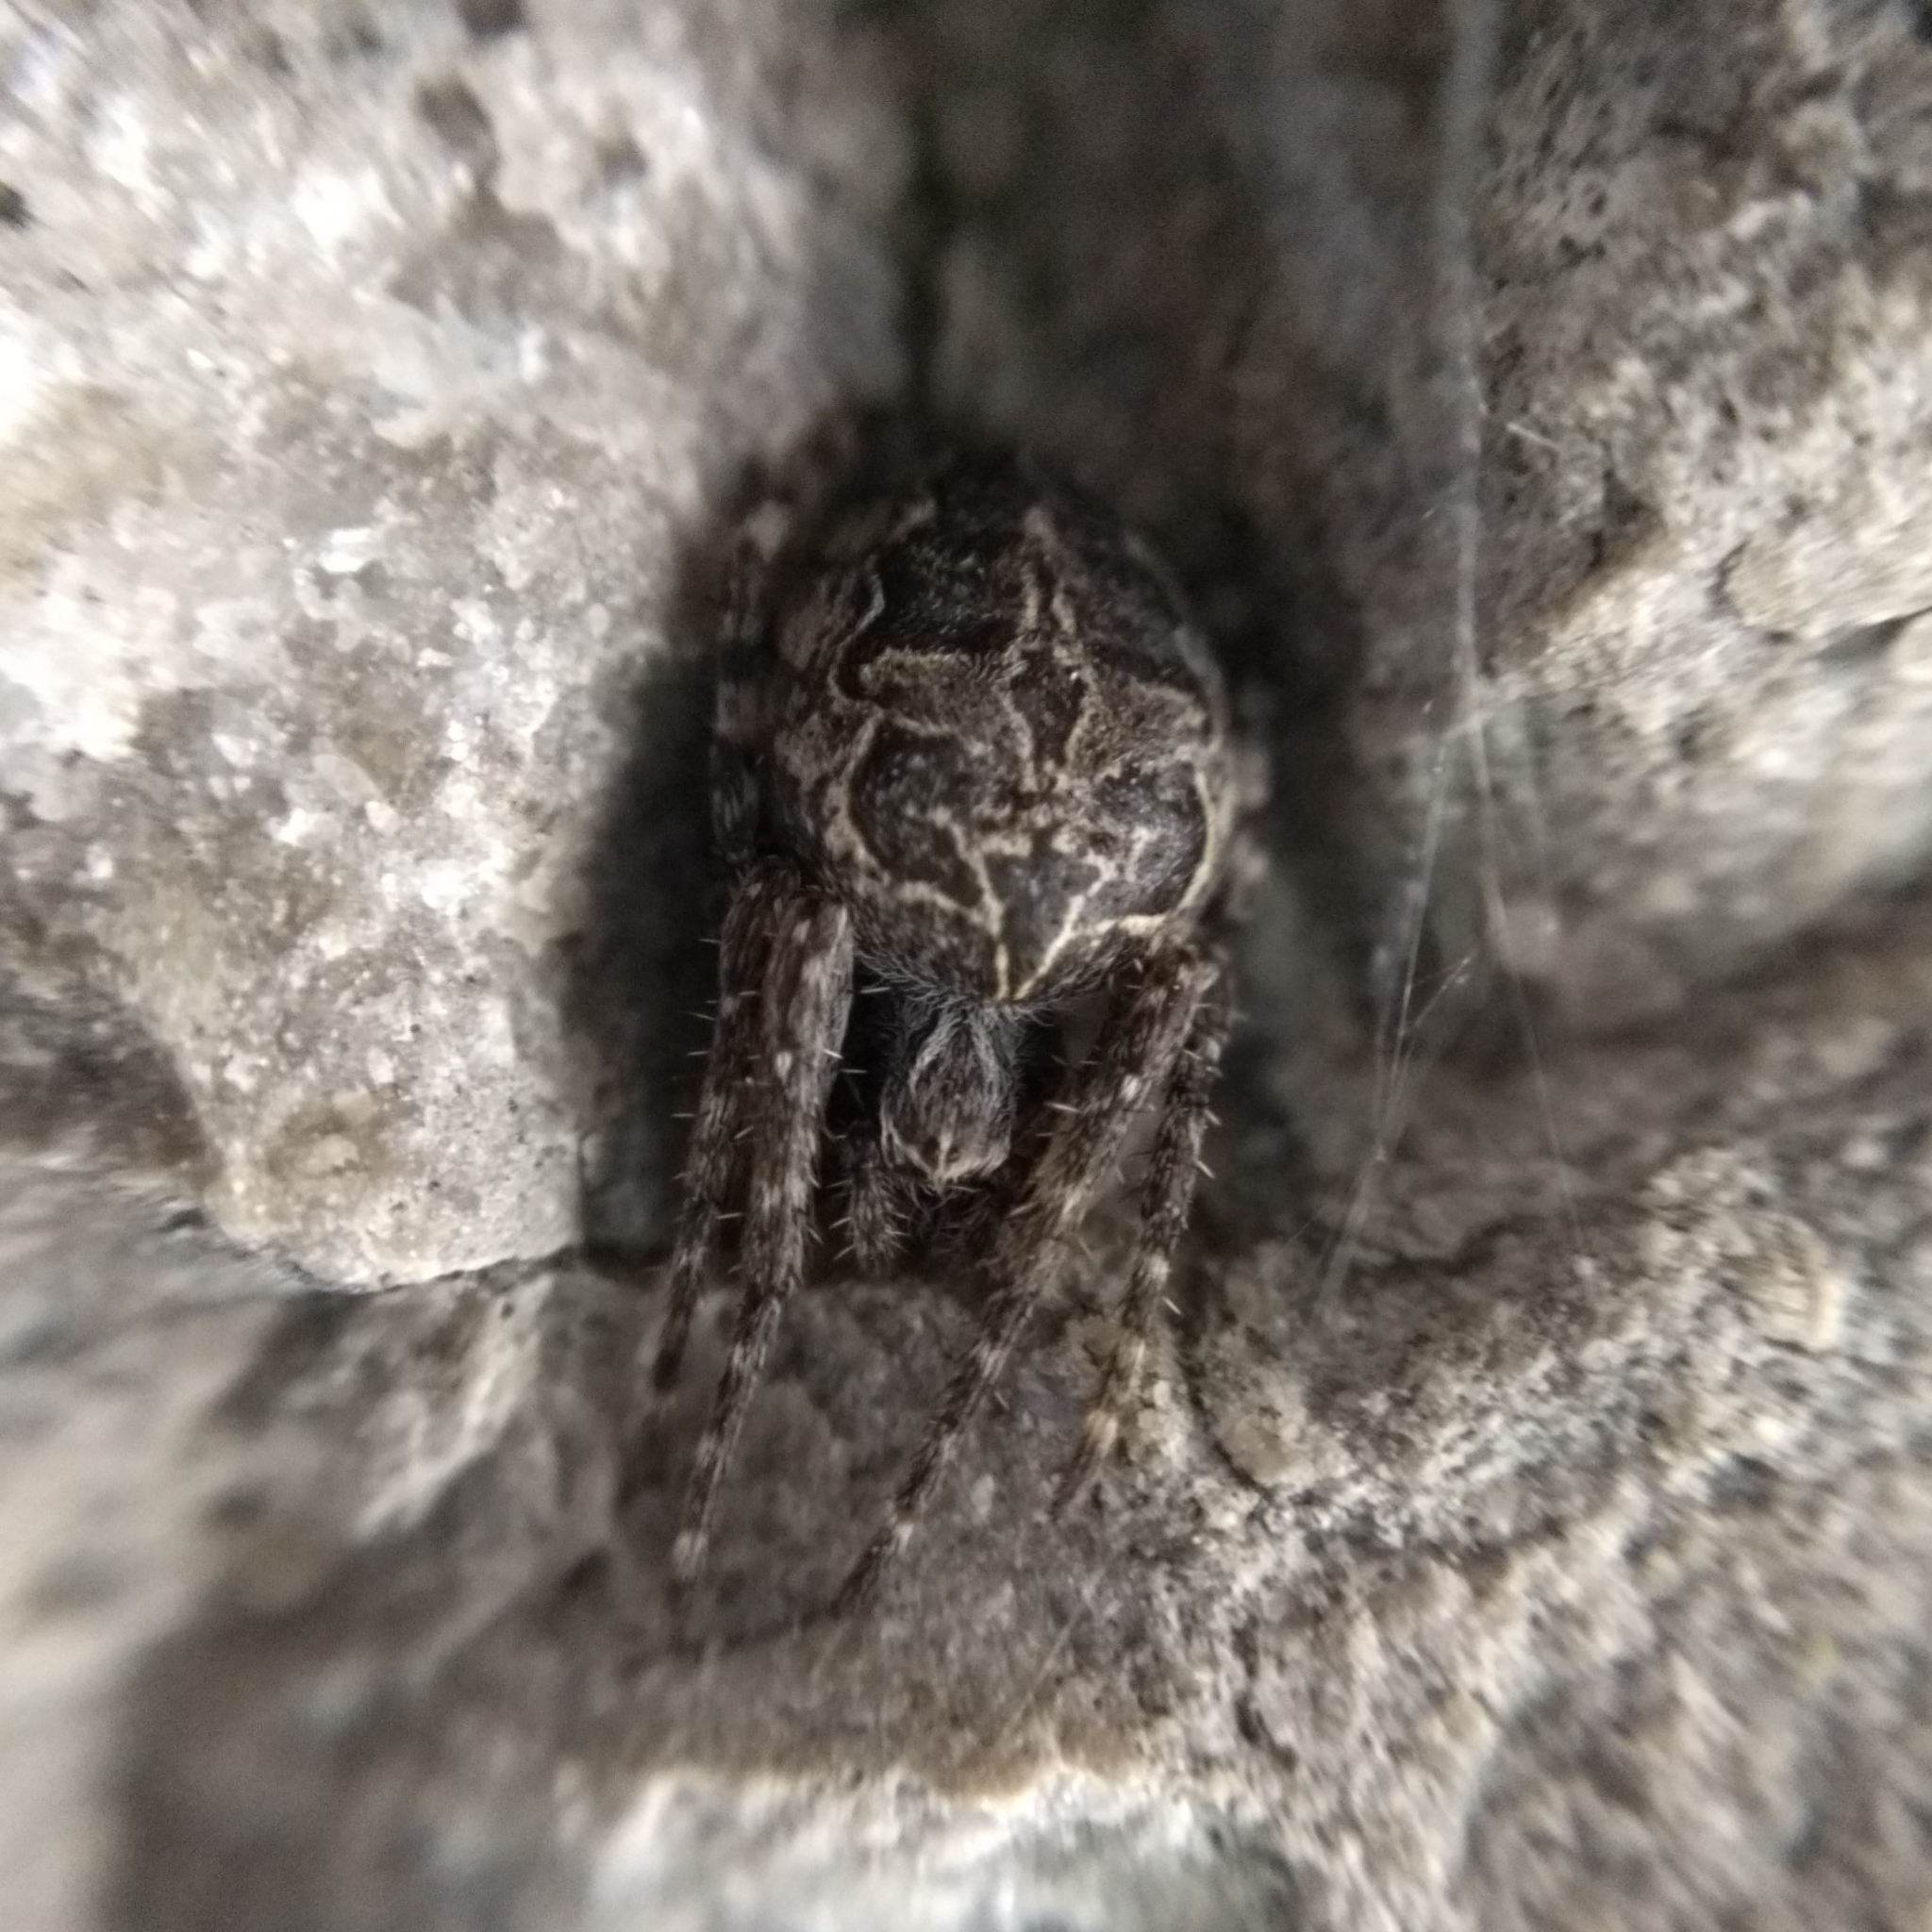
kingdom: Animalia
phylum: Arthropoda
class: Arachnida
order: Araneae
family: Araneidae
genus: Larinioides
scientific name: Larinioides sclopetarius
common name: Bridge orbweaver
